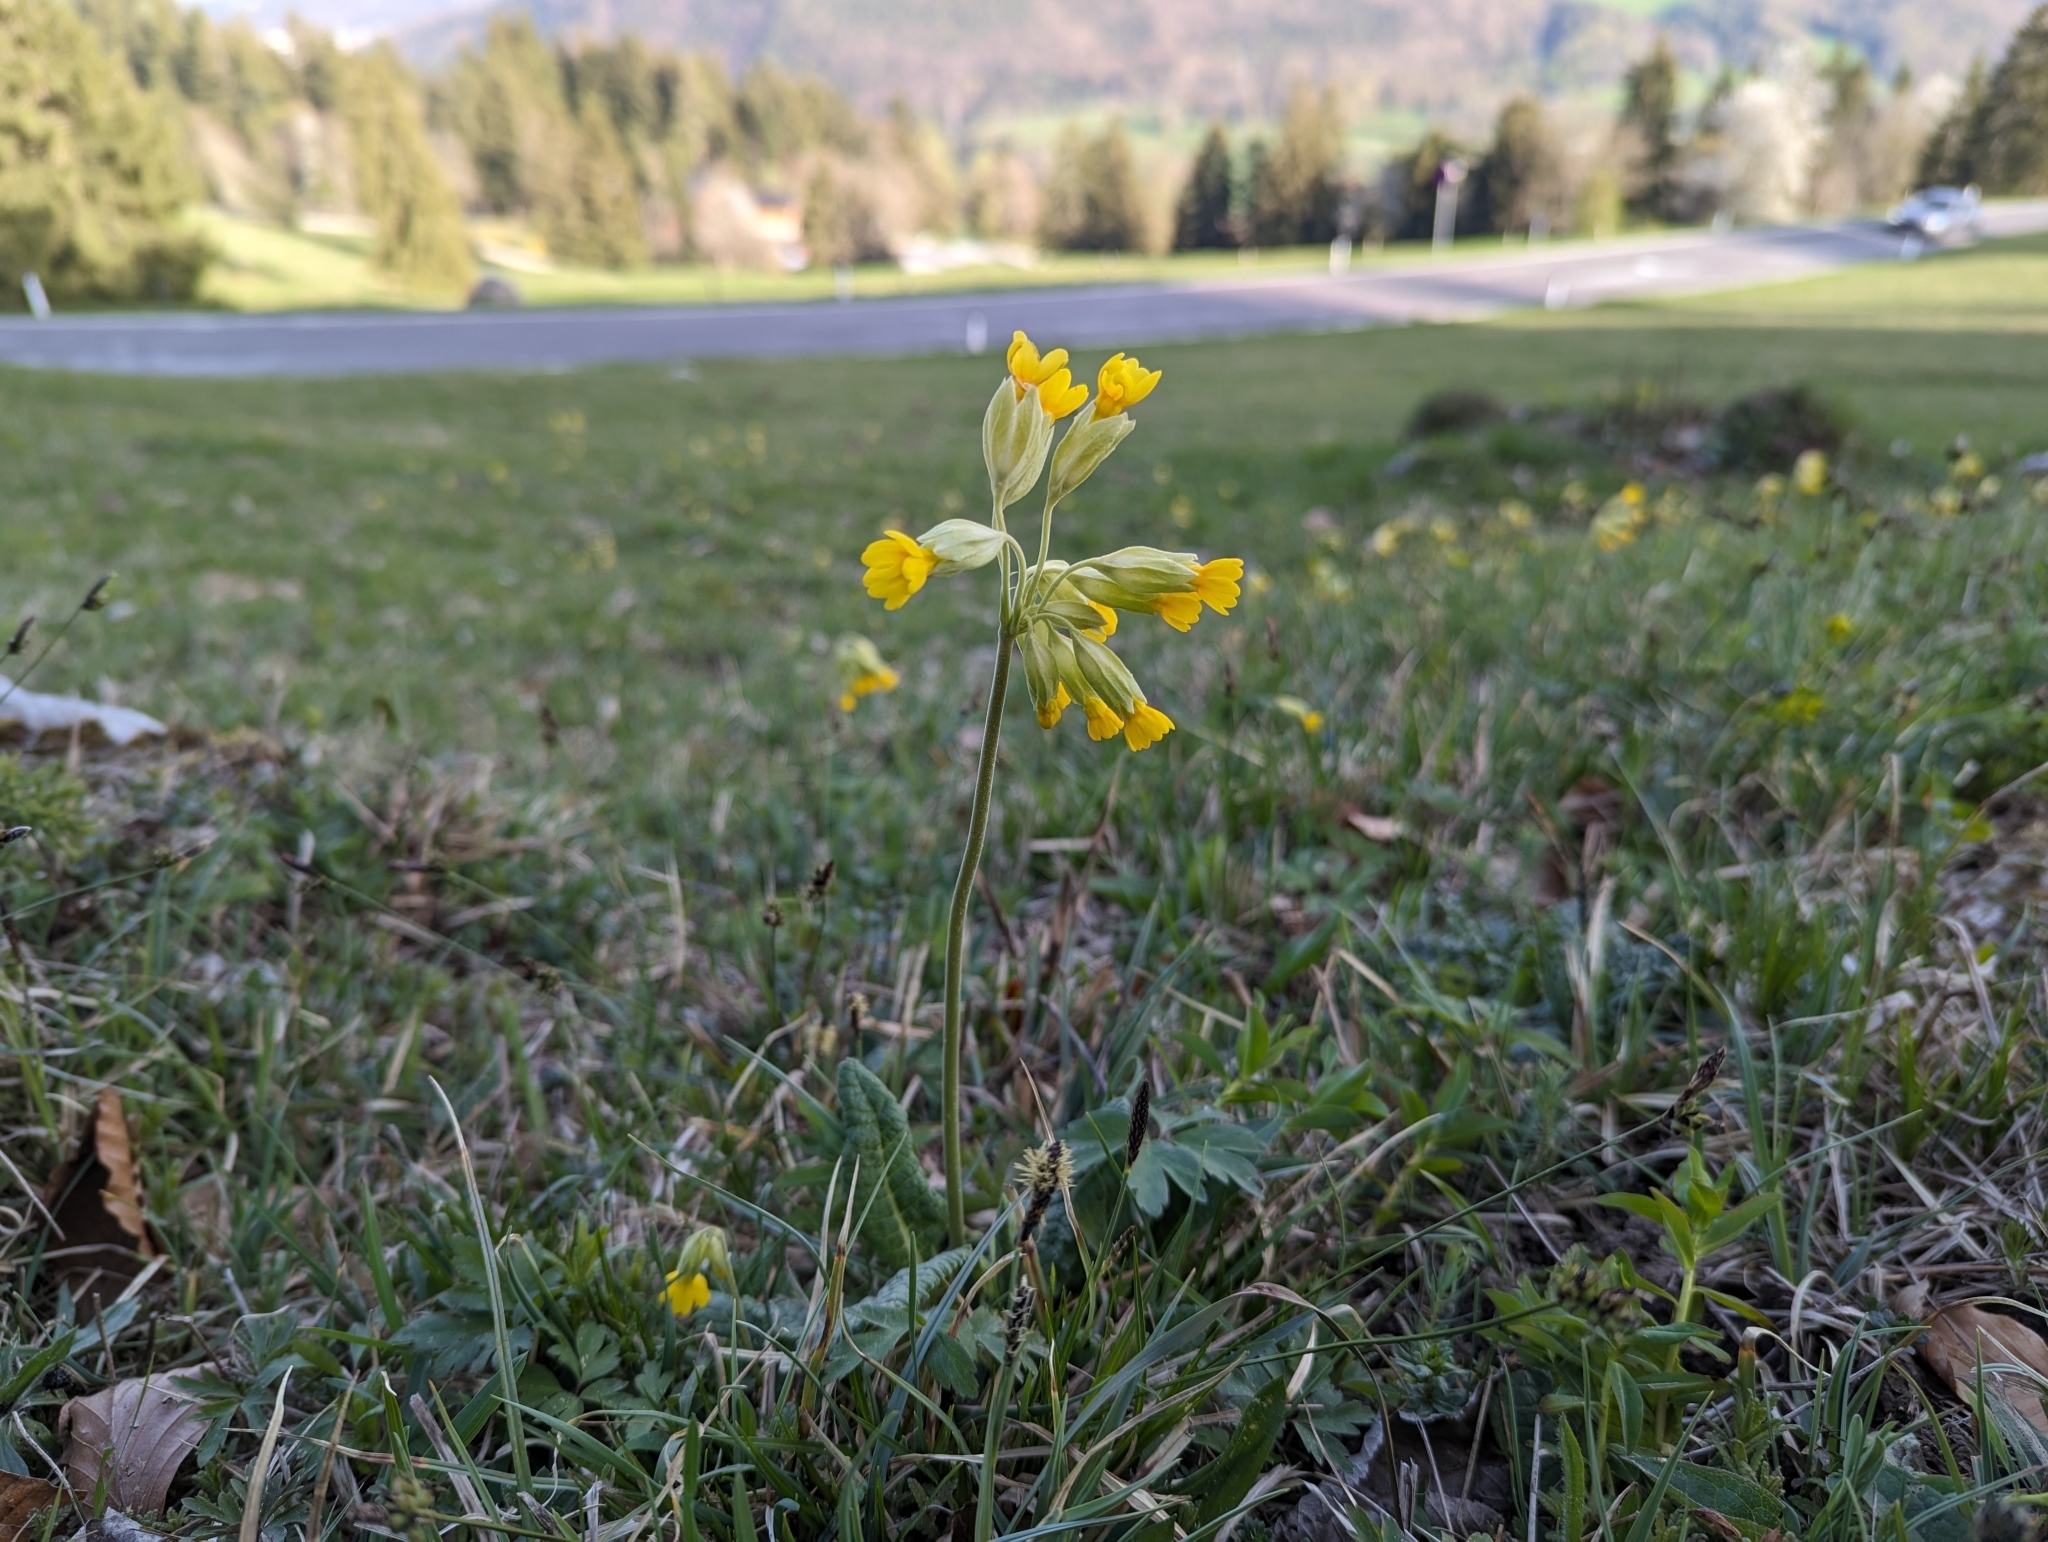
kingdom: Plantae
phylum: Tracheophyta
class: Magnoliopsida
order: Ericales
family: Primulaceae
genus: Primula
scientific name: Primula veris
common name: Cowslip
